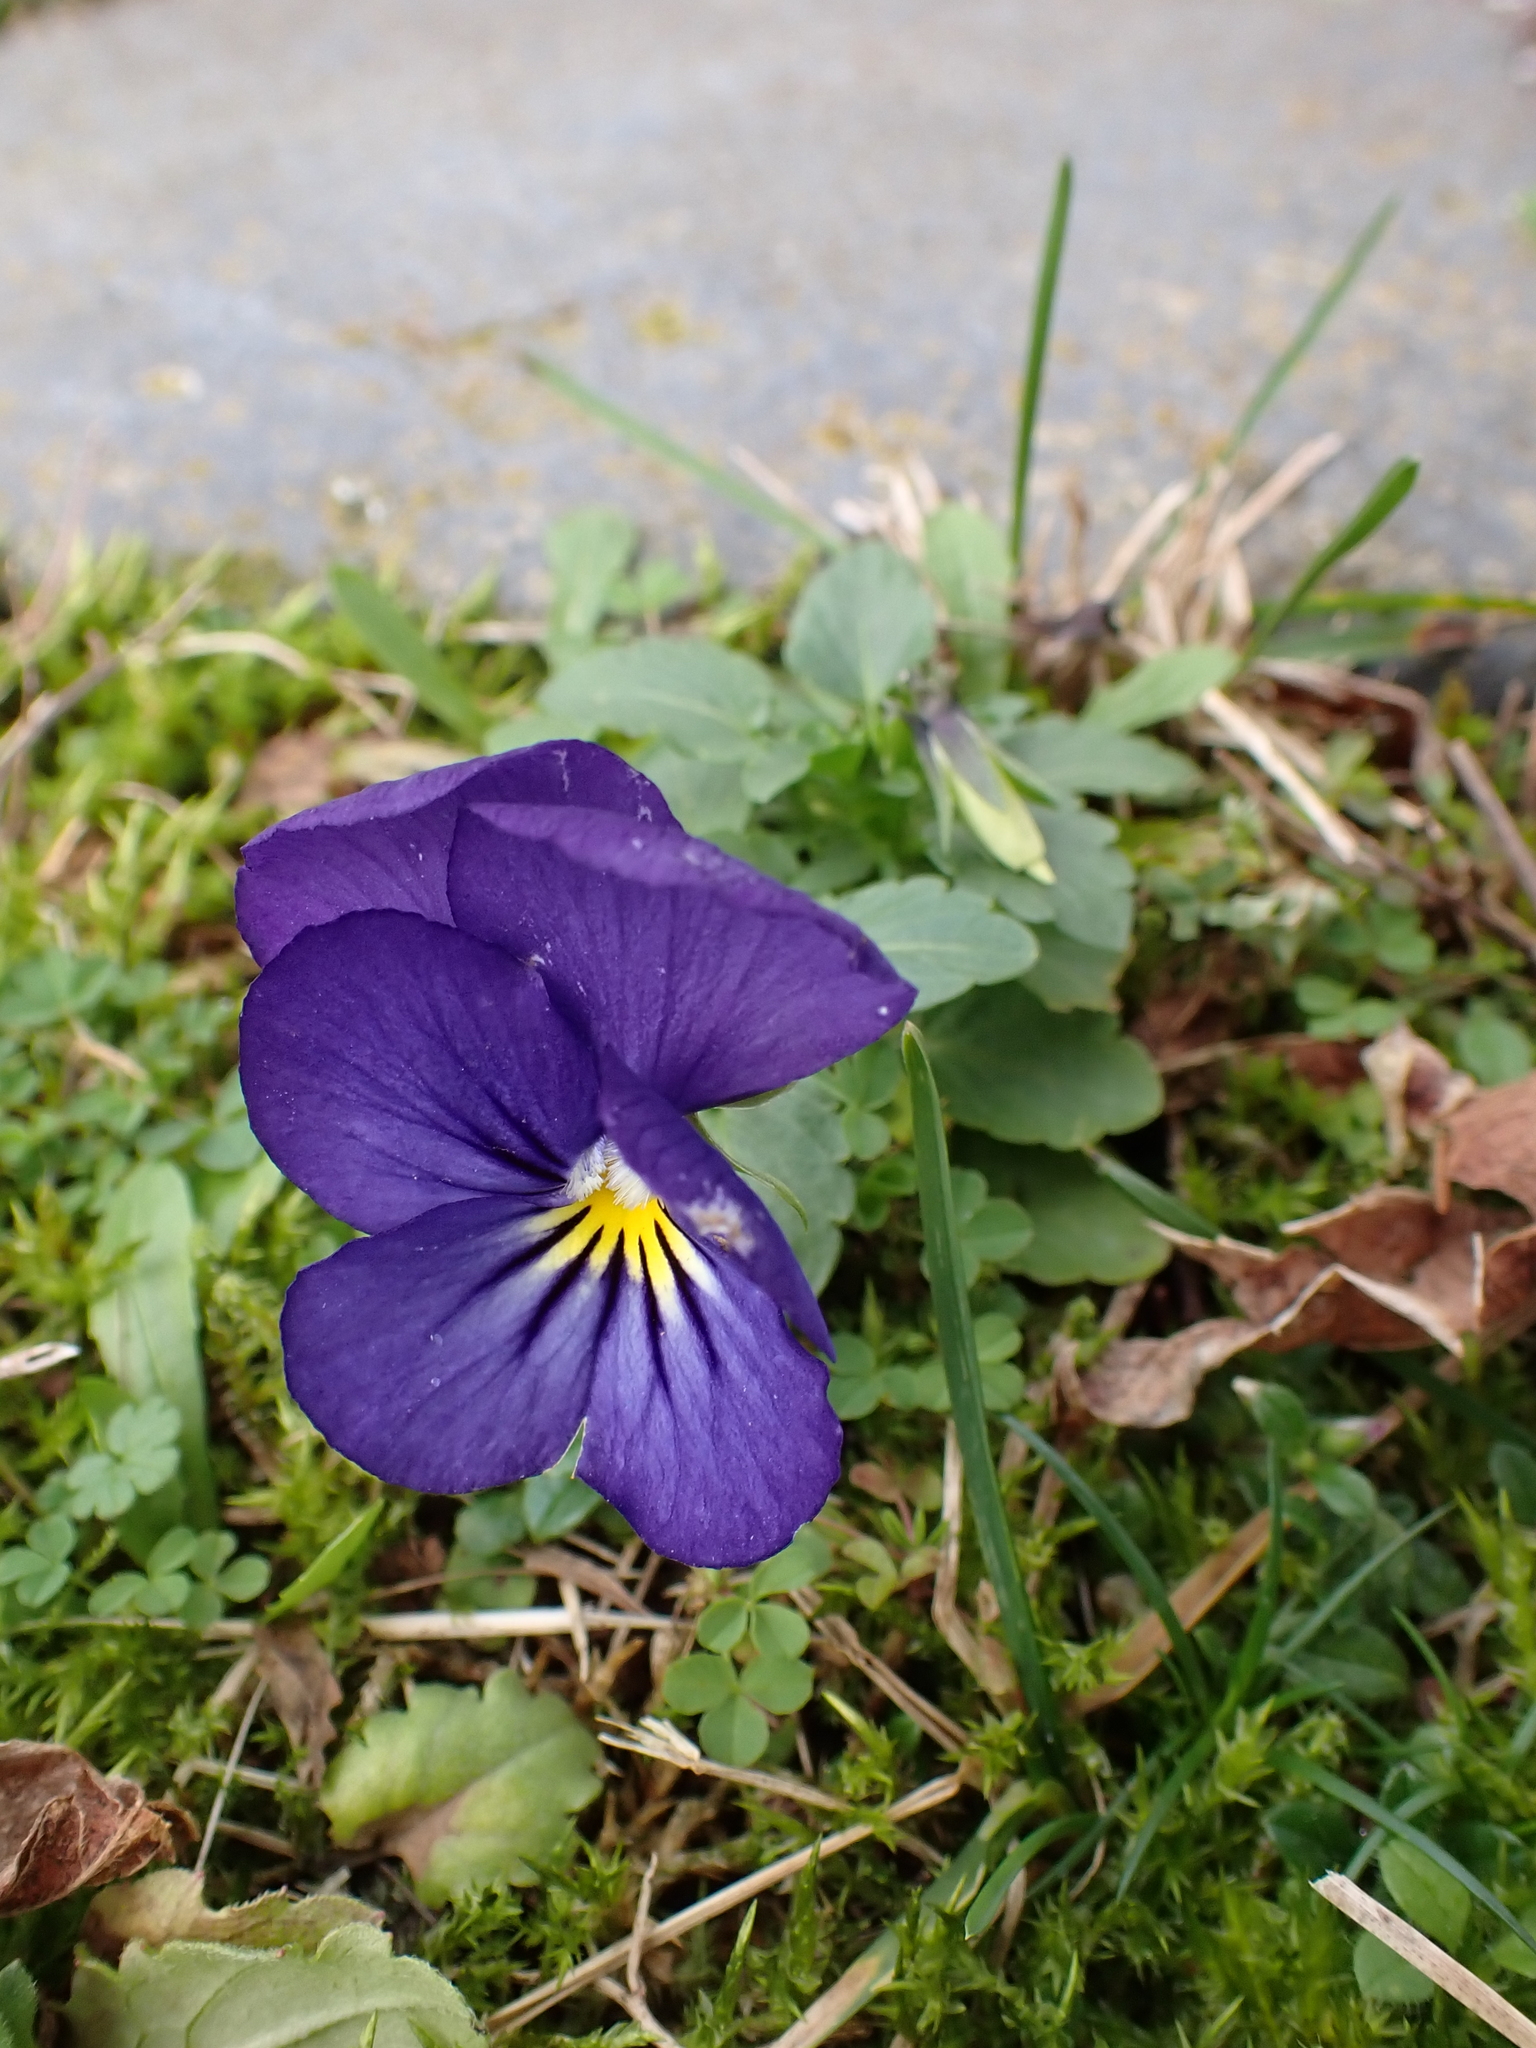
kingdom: Plantae
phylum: Tracheophyta
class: Magnoliopsida
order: Malpighiales
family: Violaceae
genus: Viola
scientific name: Viola wittrockiana
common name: Garden pansy
